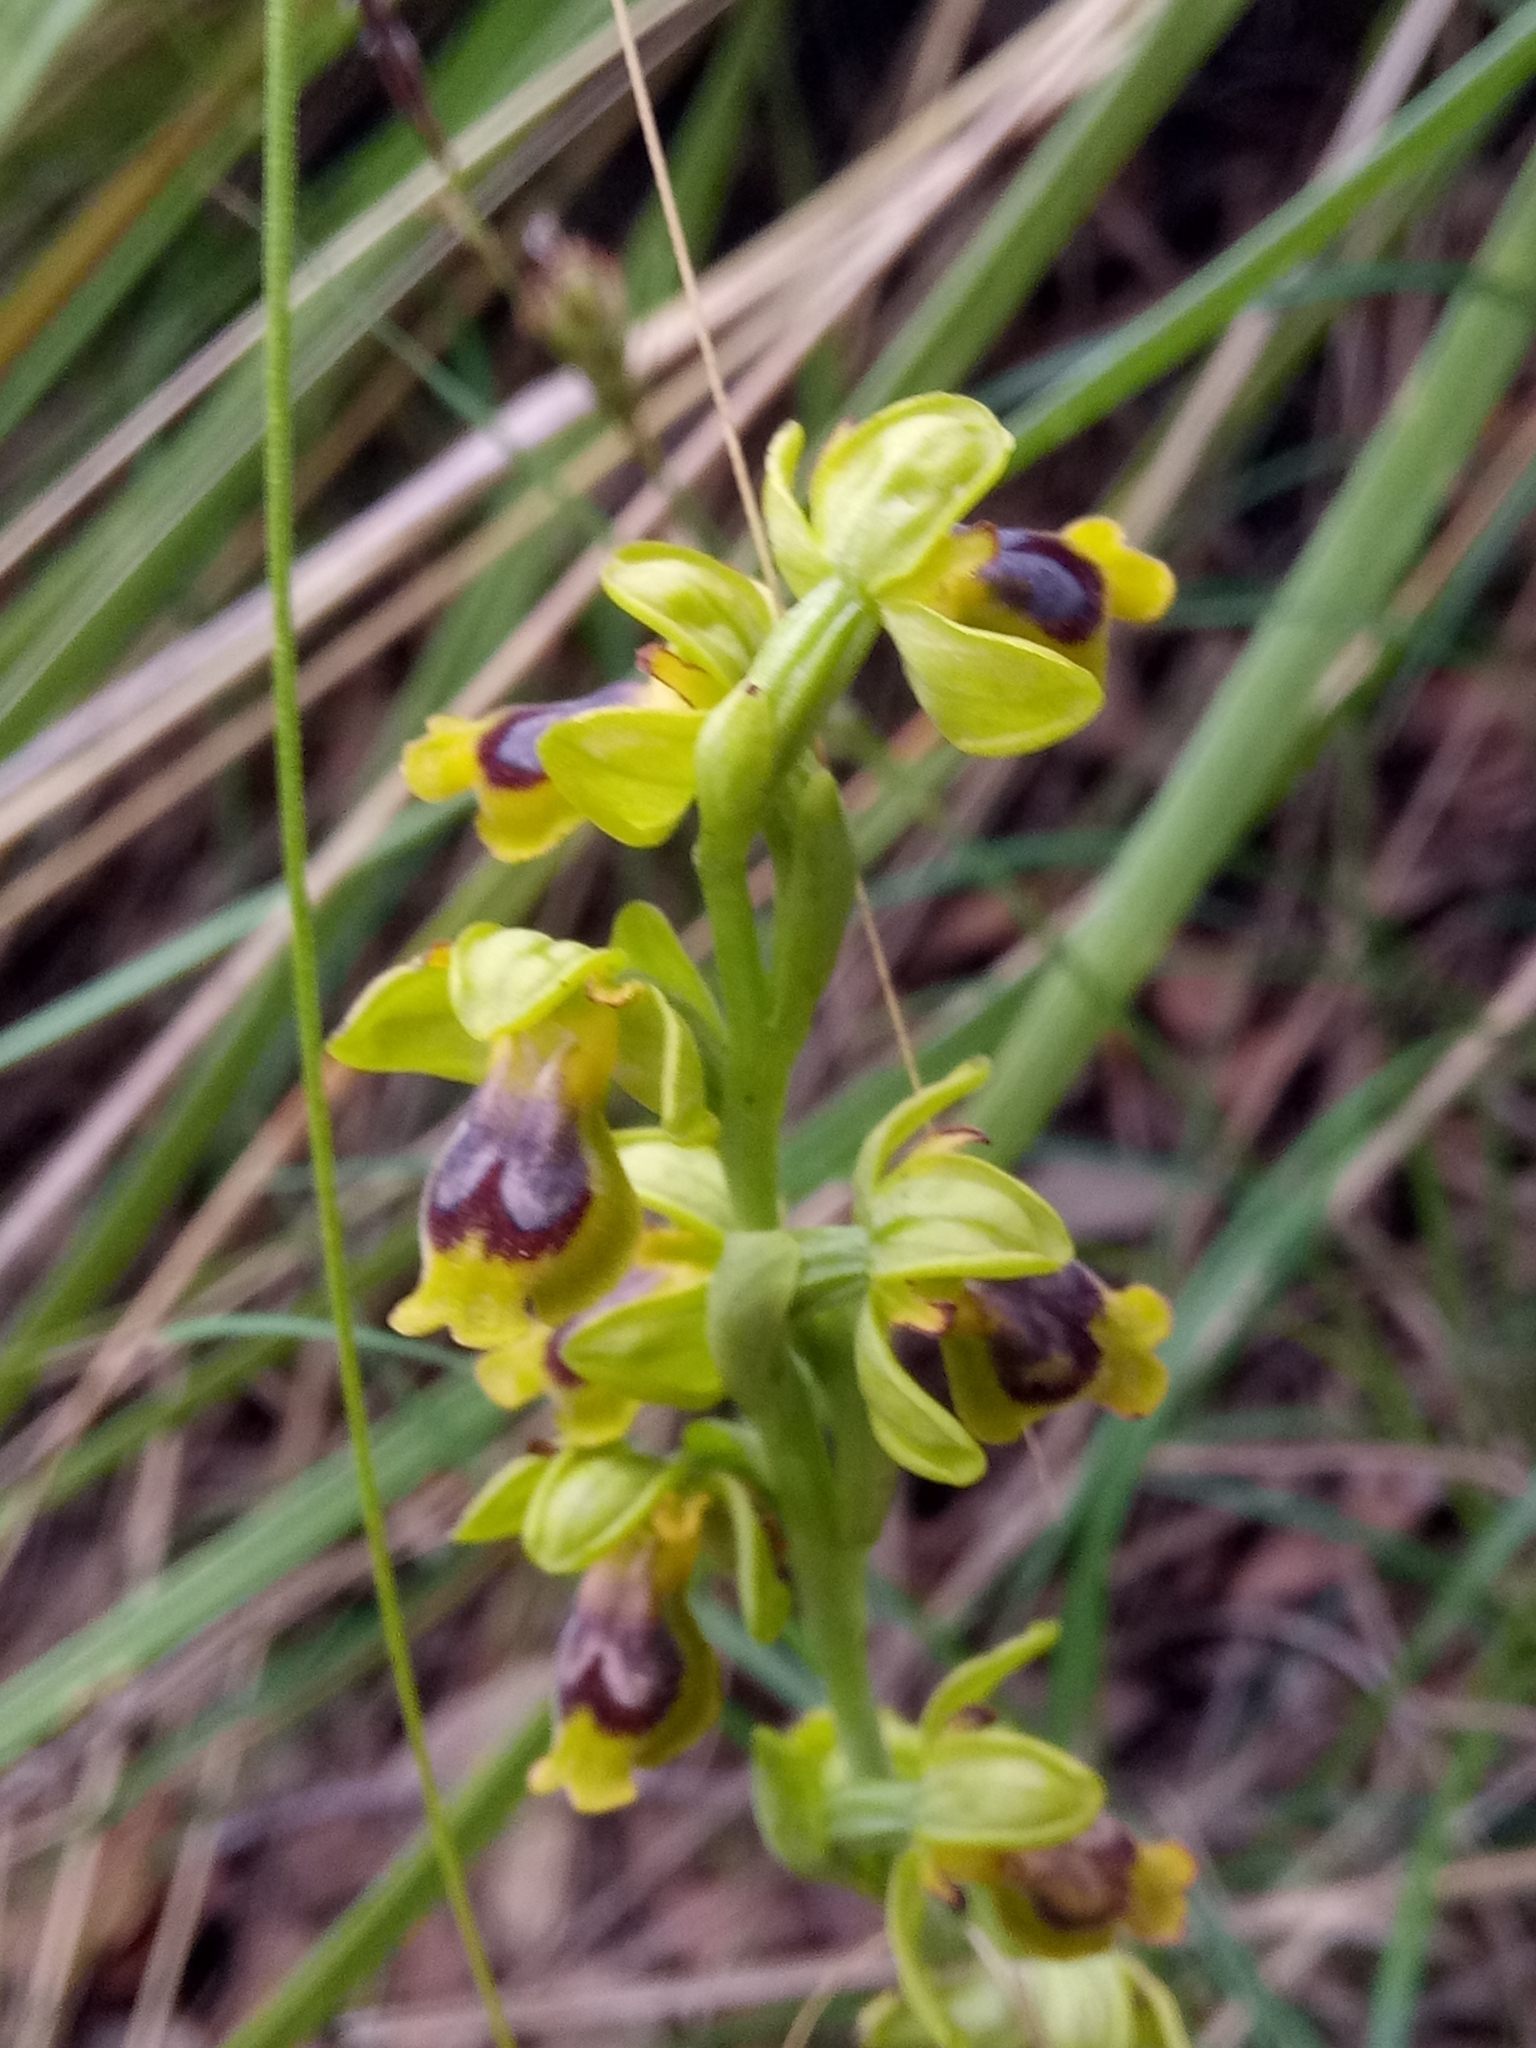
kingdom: Plantae
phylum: Tracheophyta
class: Liliopsida
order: Asparagales
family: Orchidaceae
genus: Ophrys
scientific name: Ophrys battandieri
